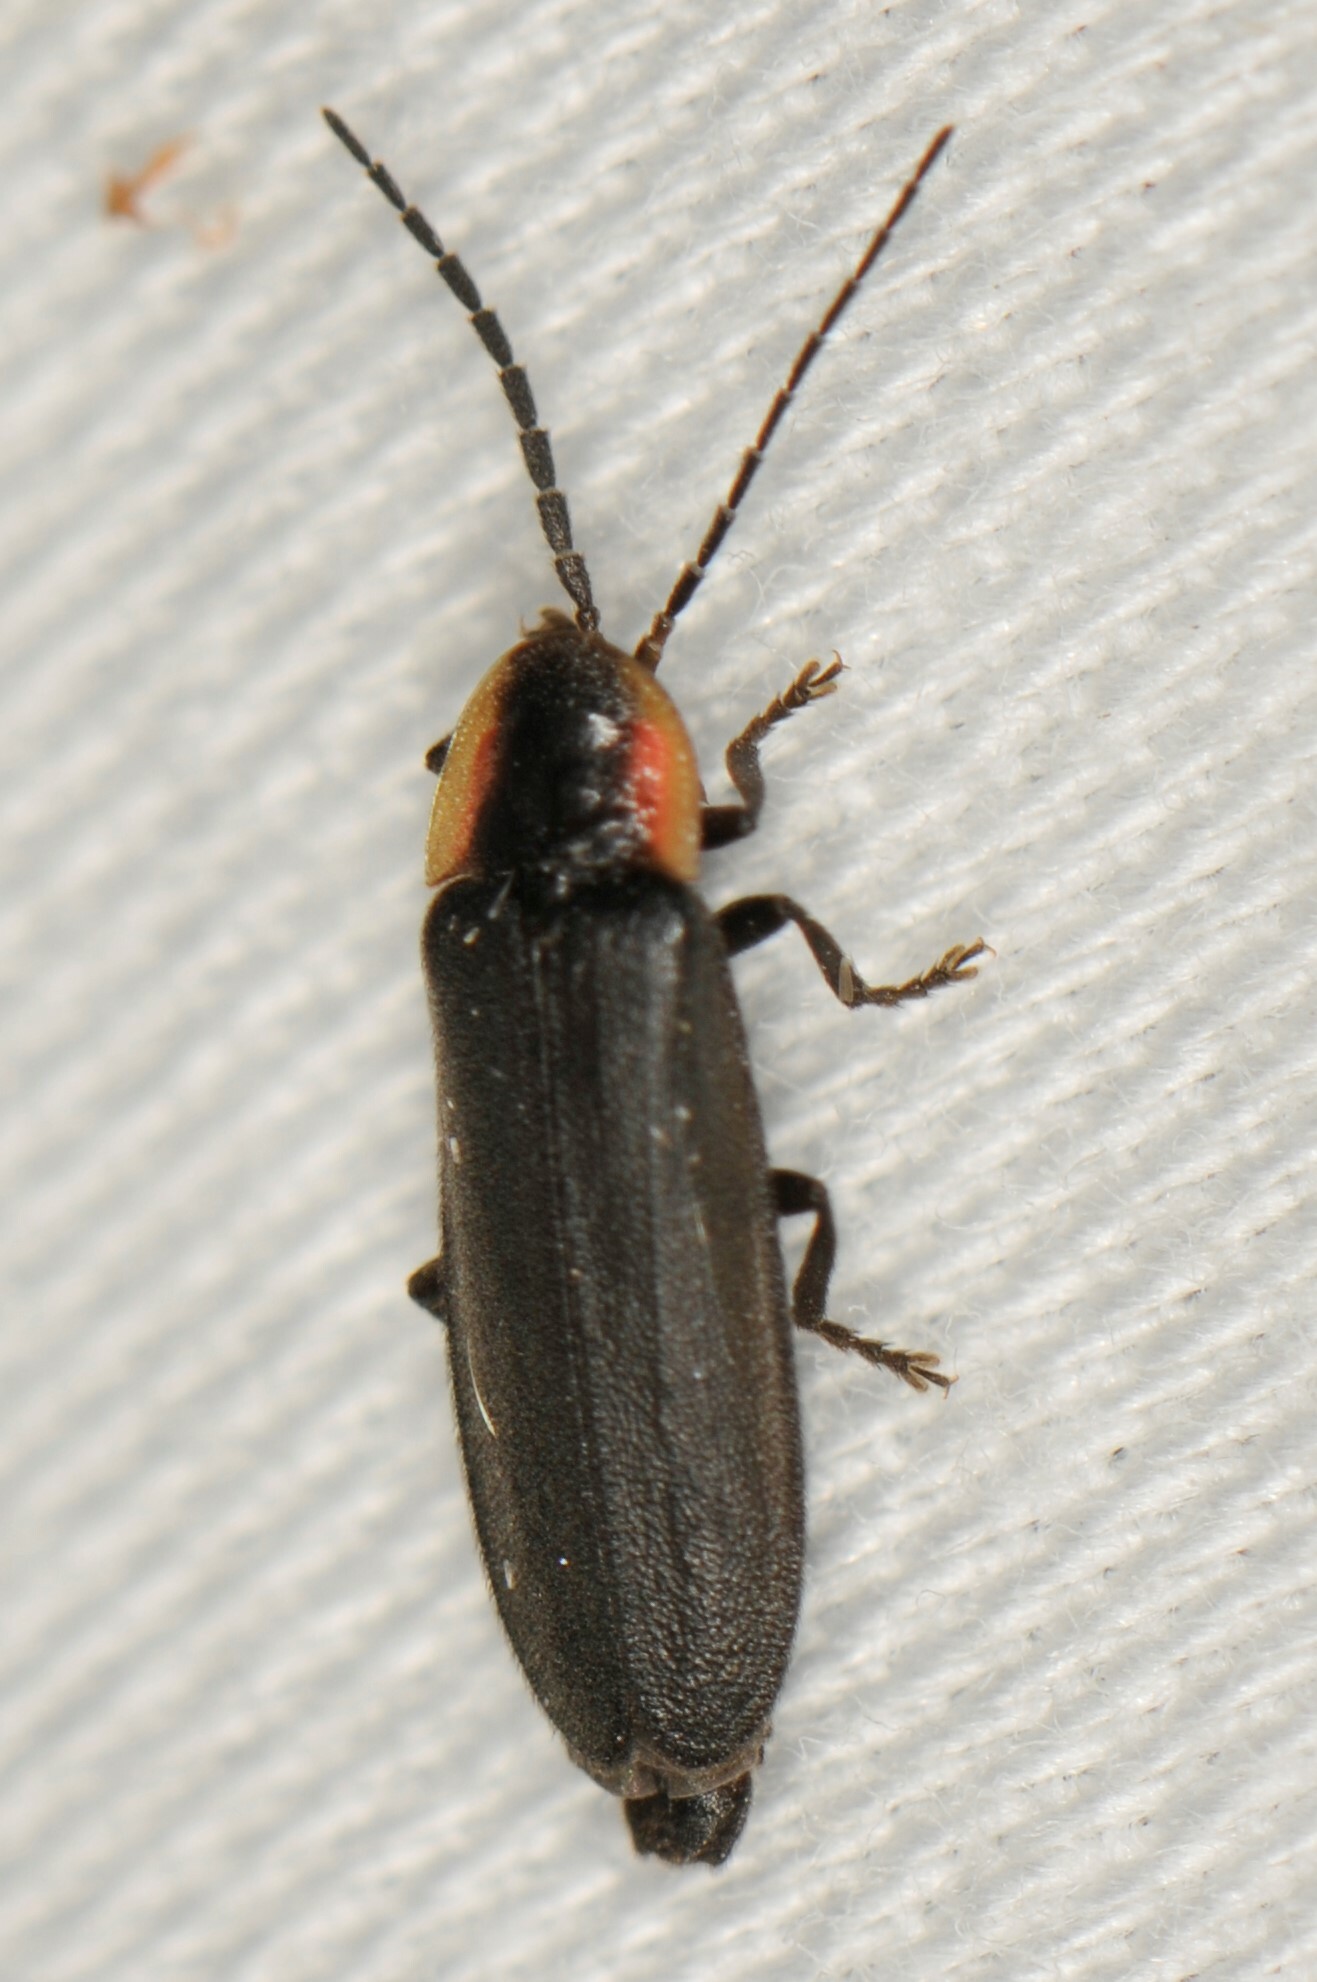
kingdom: Animalia
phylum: Arthropoda
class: Insecta
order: Coleoptera
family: Lampyridae
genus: Pyropyga
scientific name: Pyropyga
